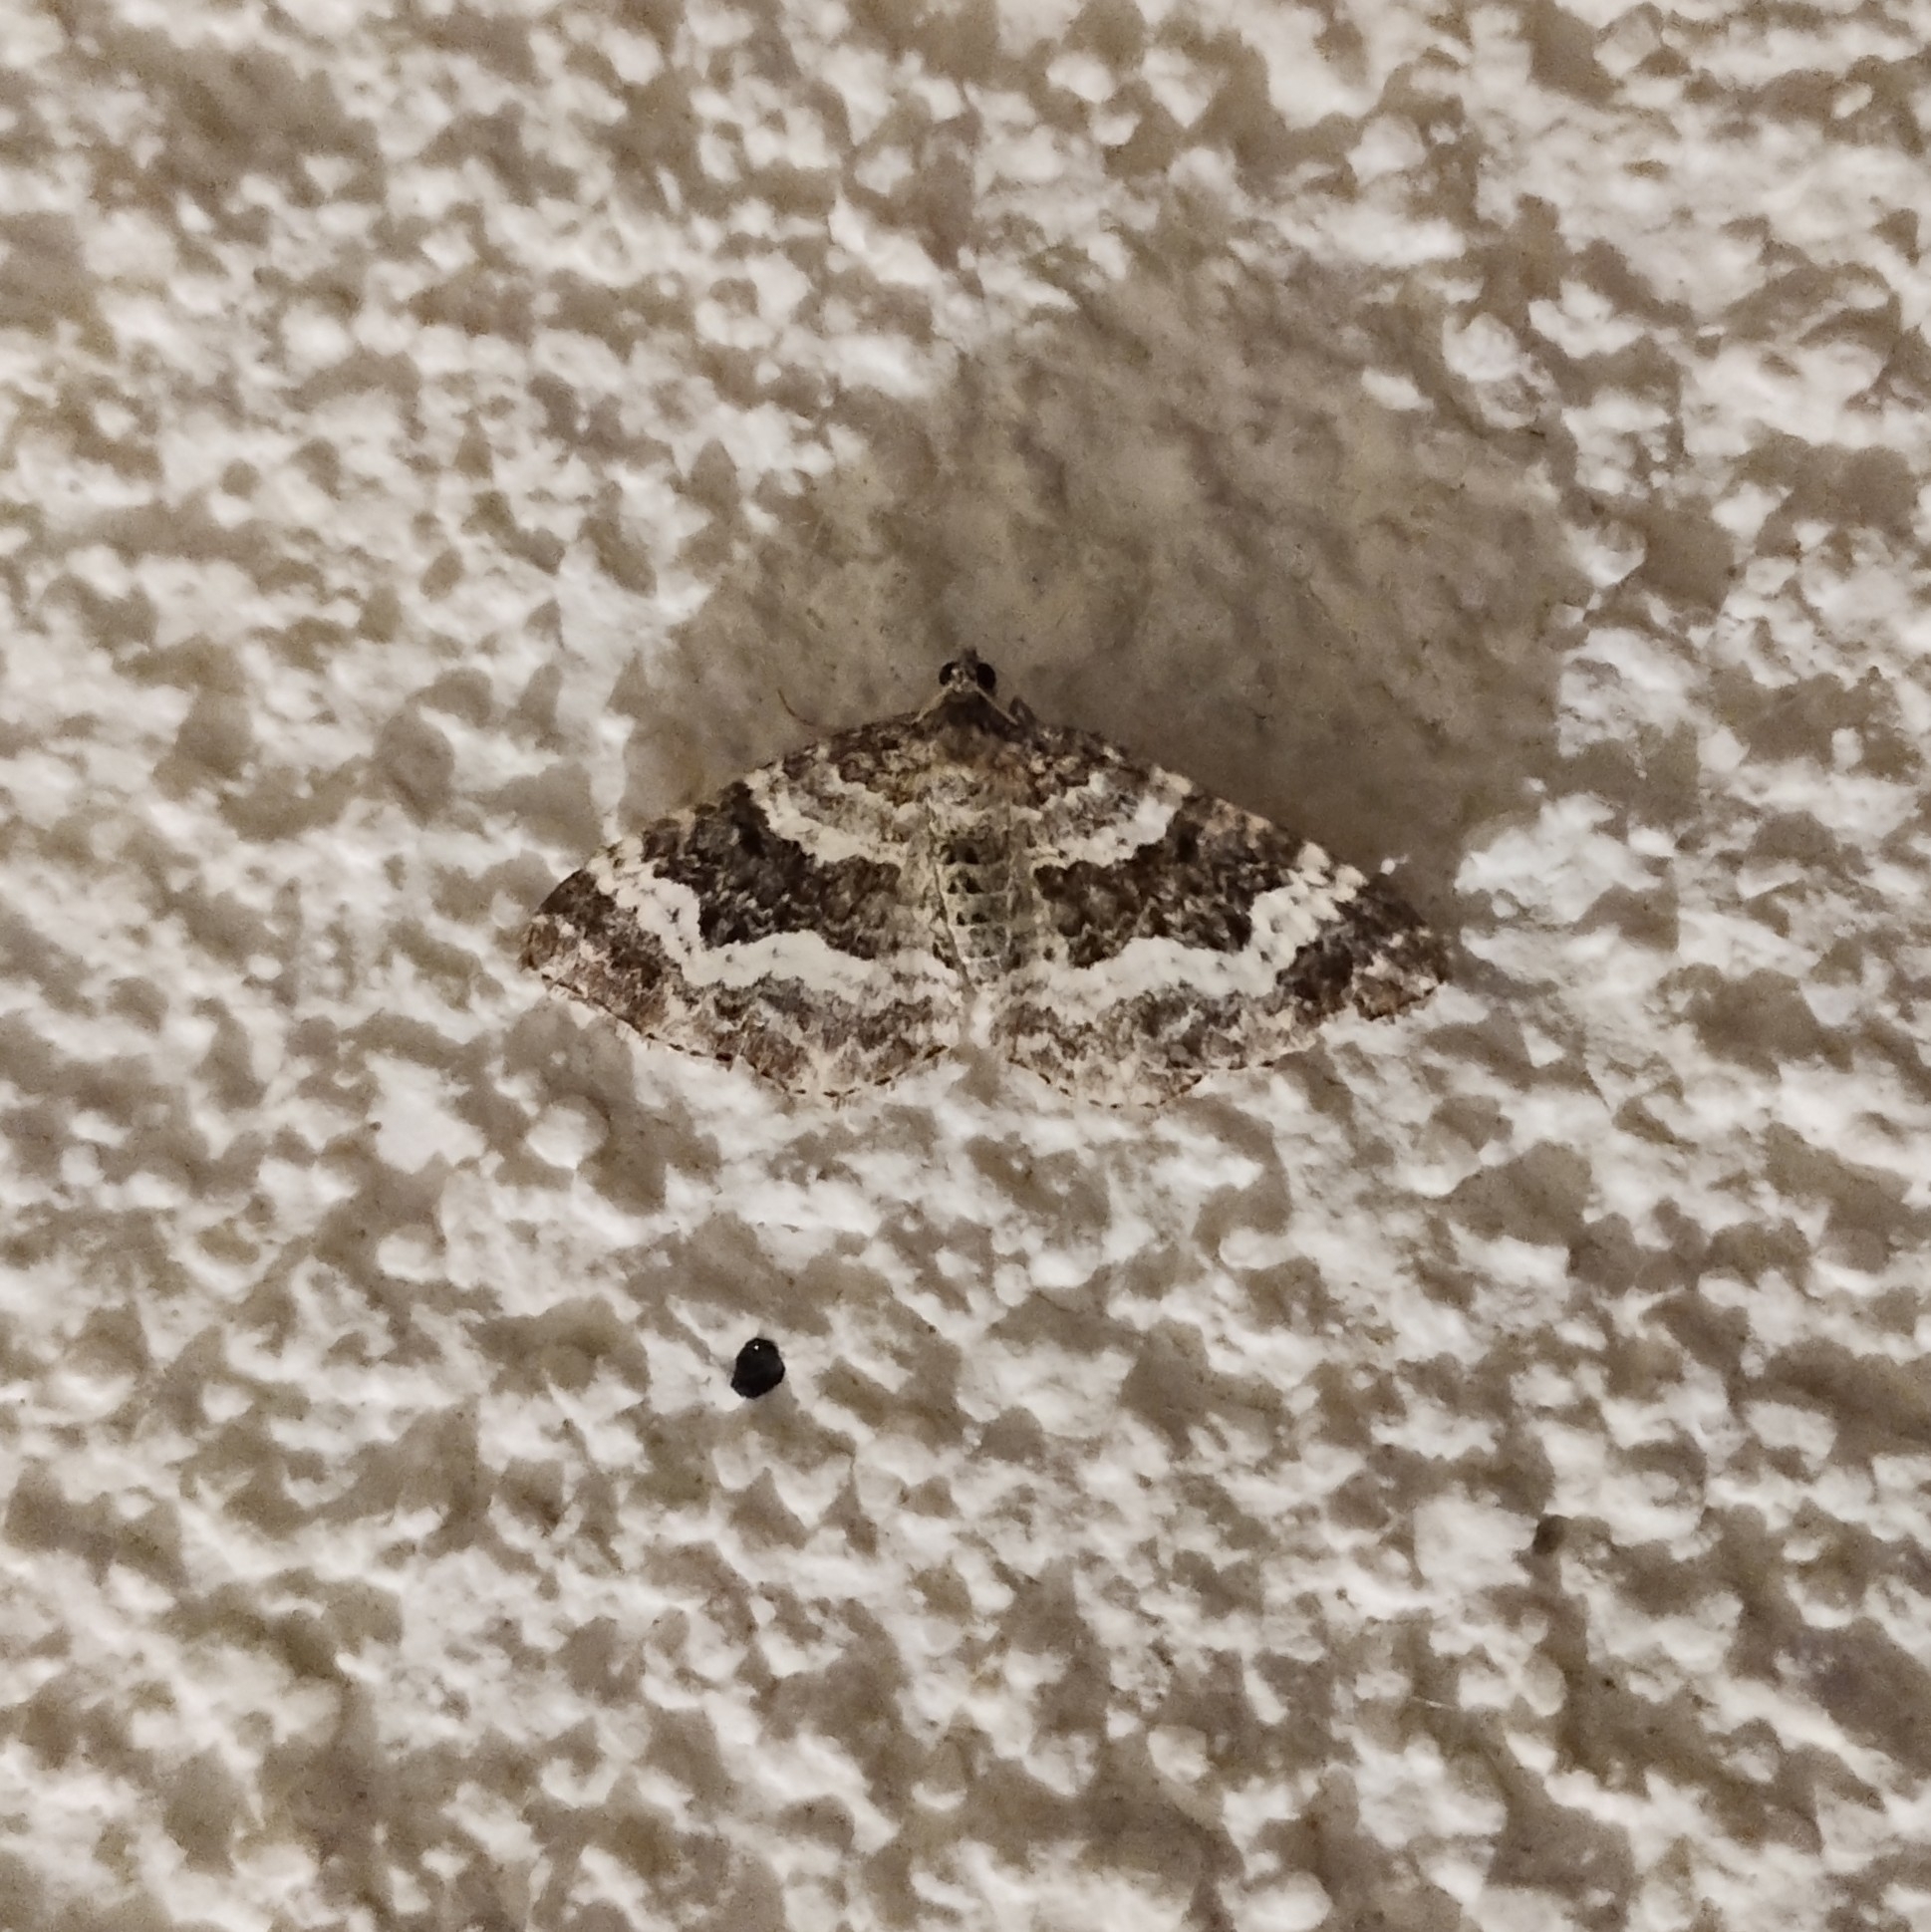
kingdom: Animalia
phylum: Arthropoda
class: Insecta
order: Lepidoptera
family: Geometridae
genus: Epirrhoe
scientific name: Epirrhoe alternata
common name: Common carpet
